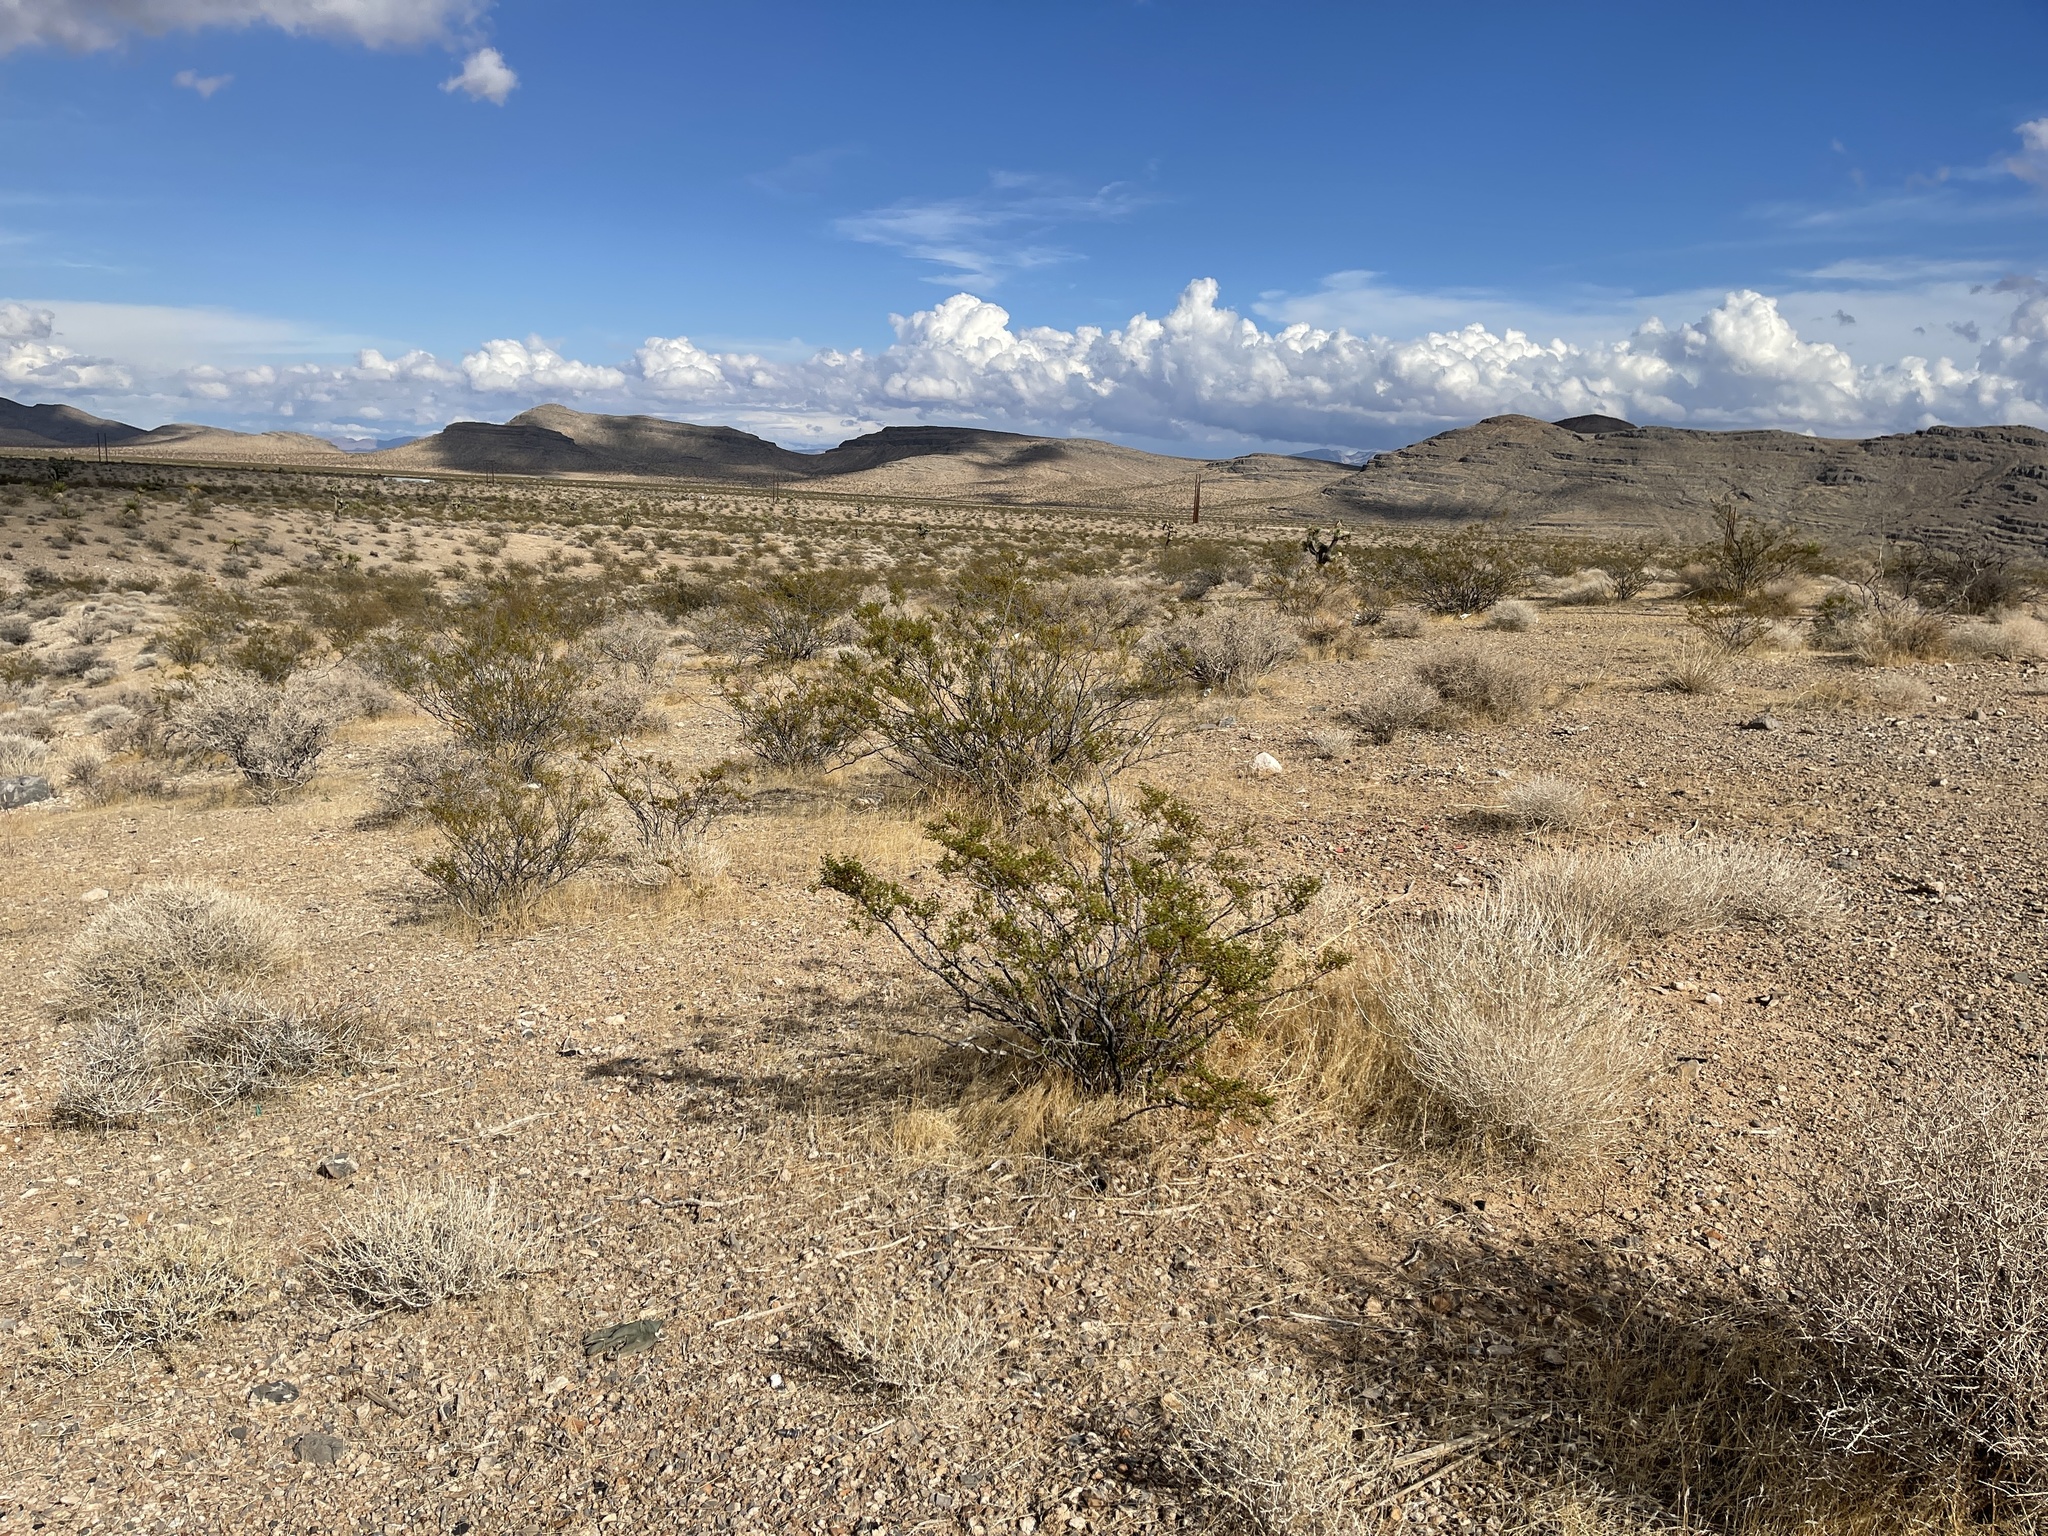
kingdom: Plantae
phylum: Tracheophyta
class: Magnoliopsida
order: Zygophyllales
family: Zygophyllaceae
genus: Larrea
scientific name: Larrea tridentata
